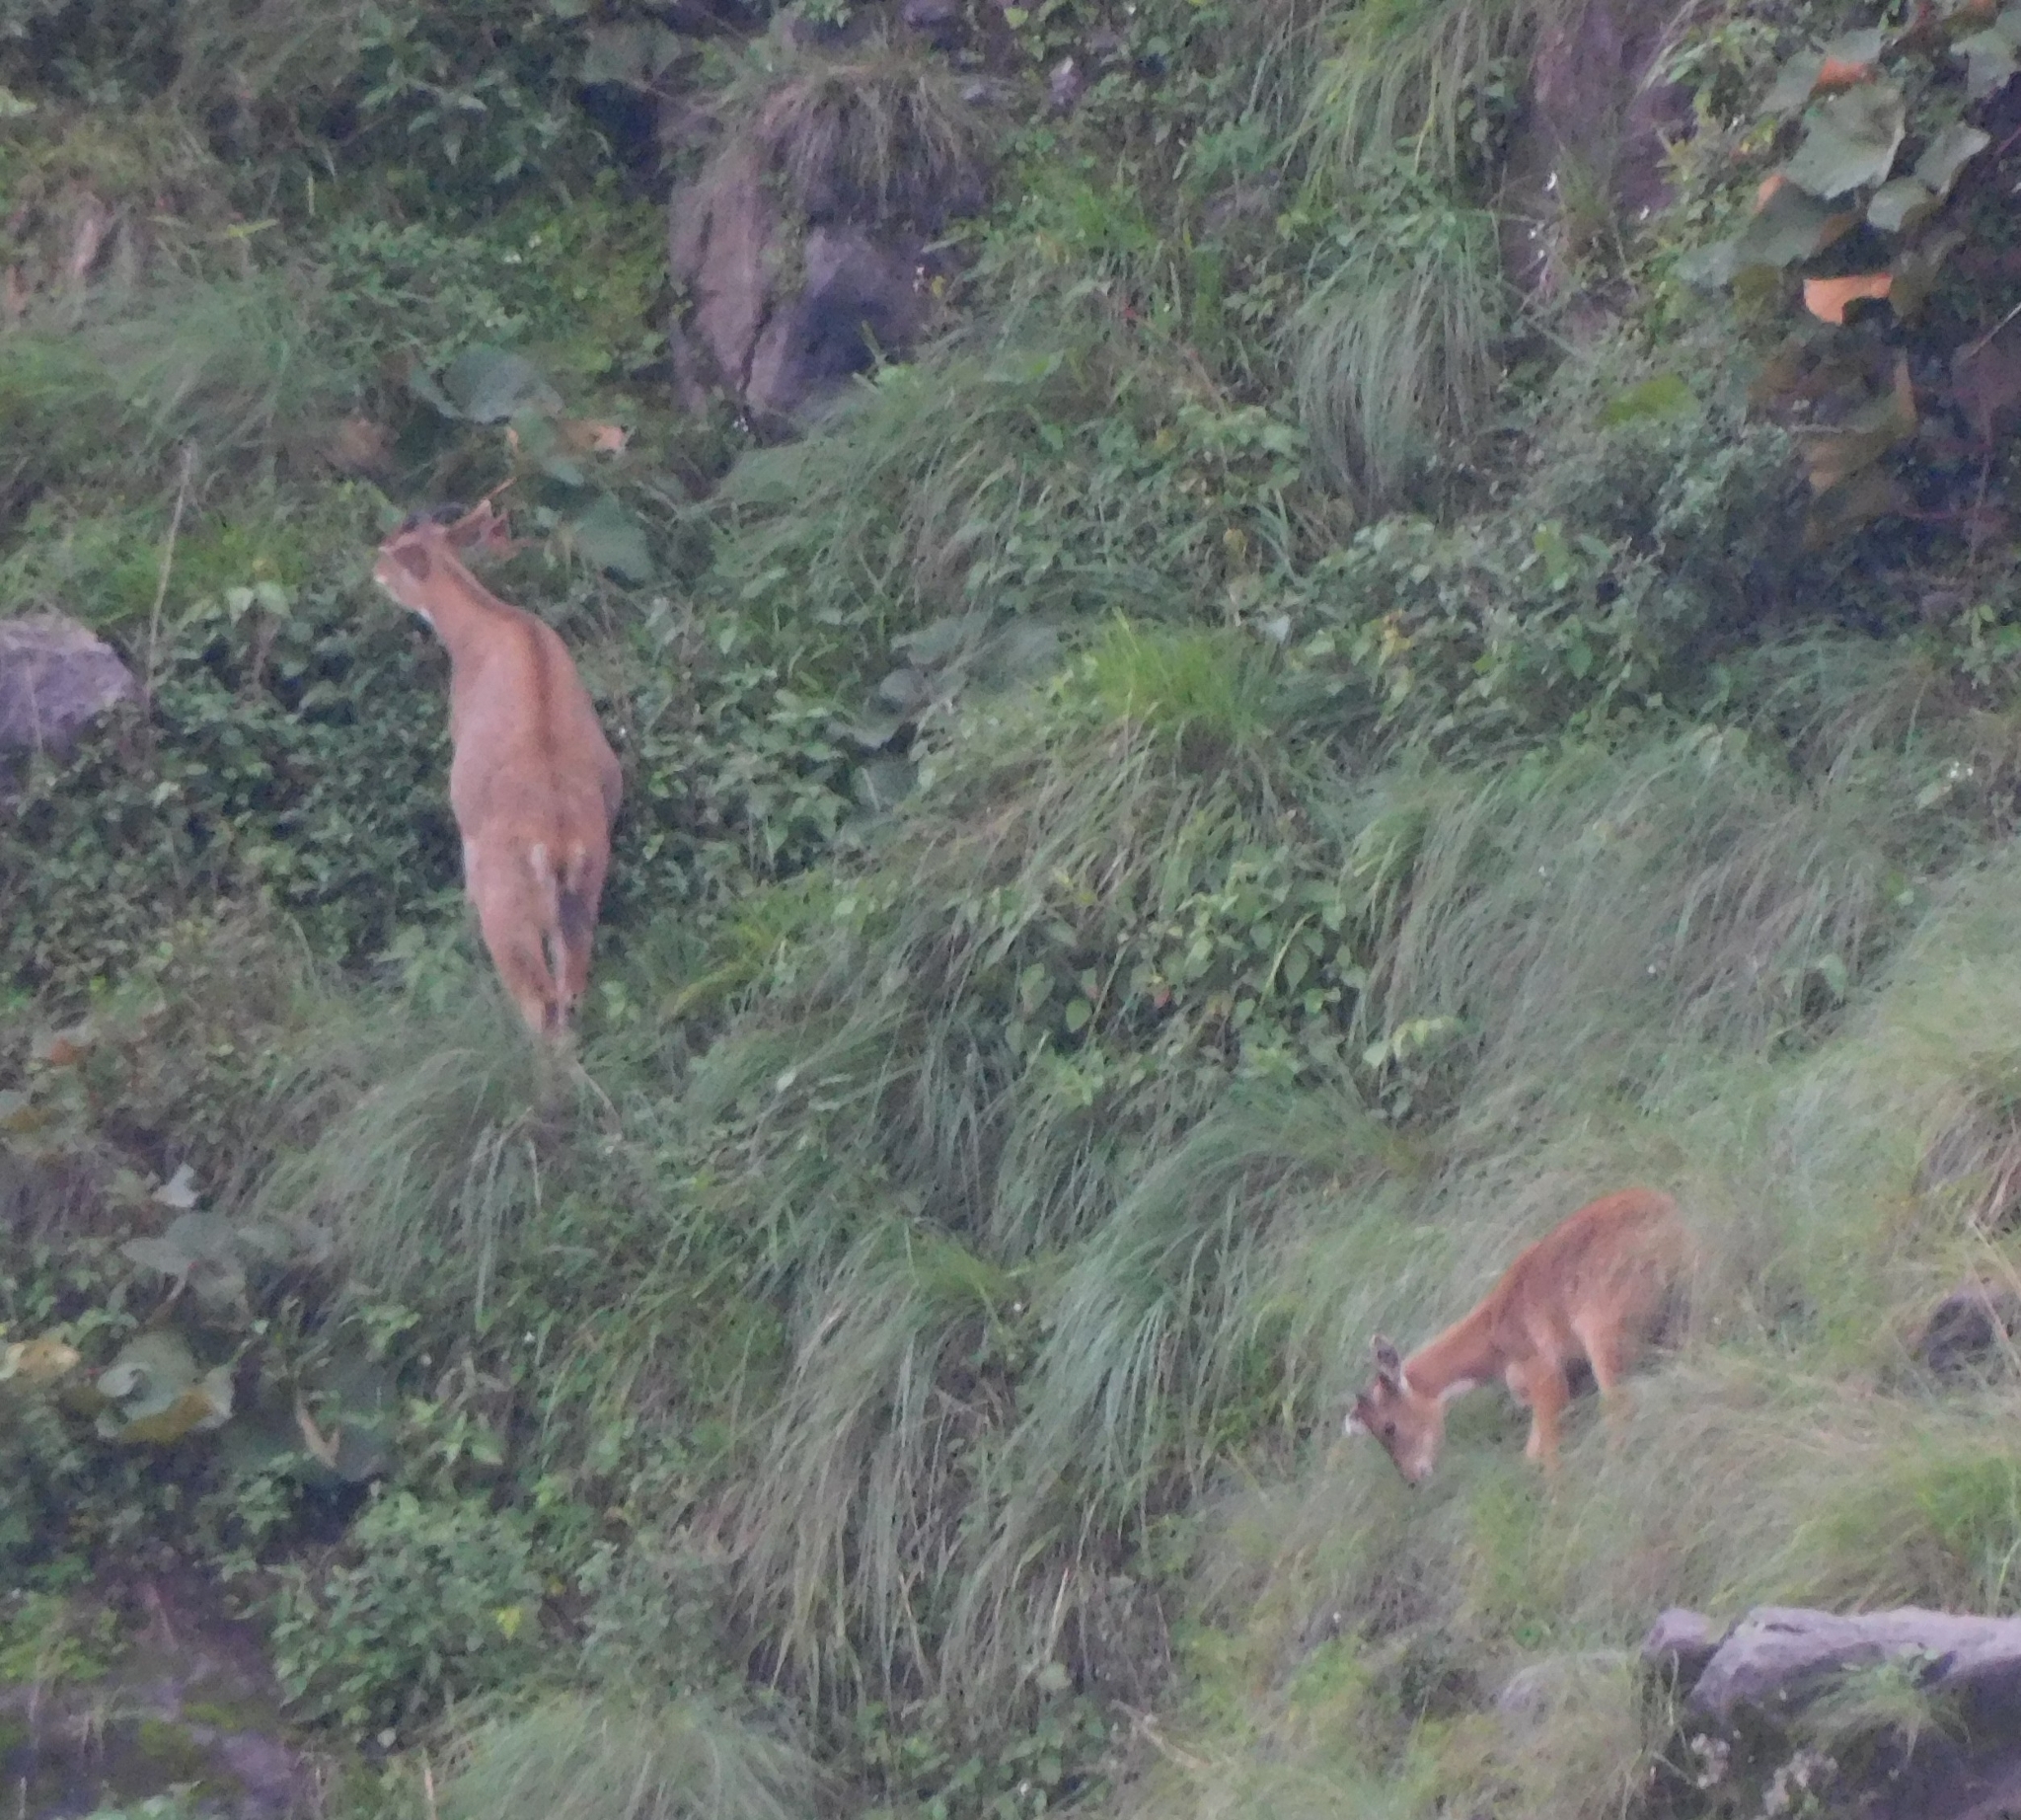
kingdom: Animalia
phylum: Chordata
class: Mammalia
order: Artiodactyla
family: Bovidae
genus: Naemorhedus
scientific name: Naemorhedus goral
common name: Goral
